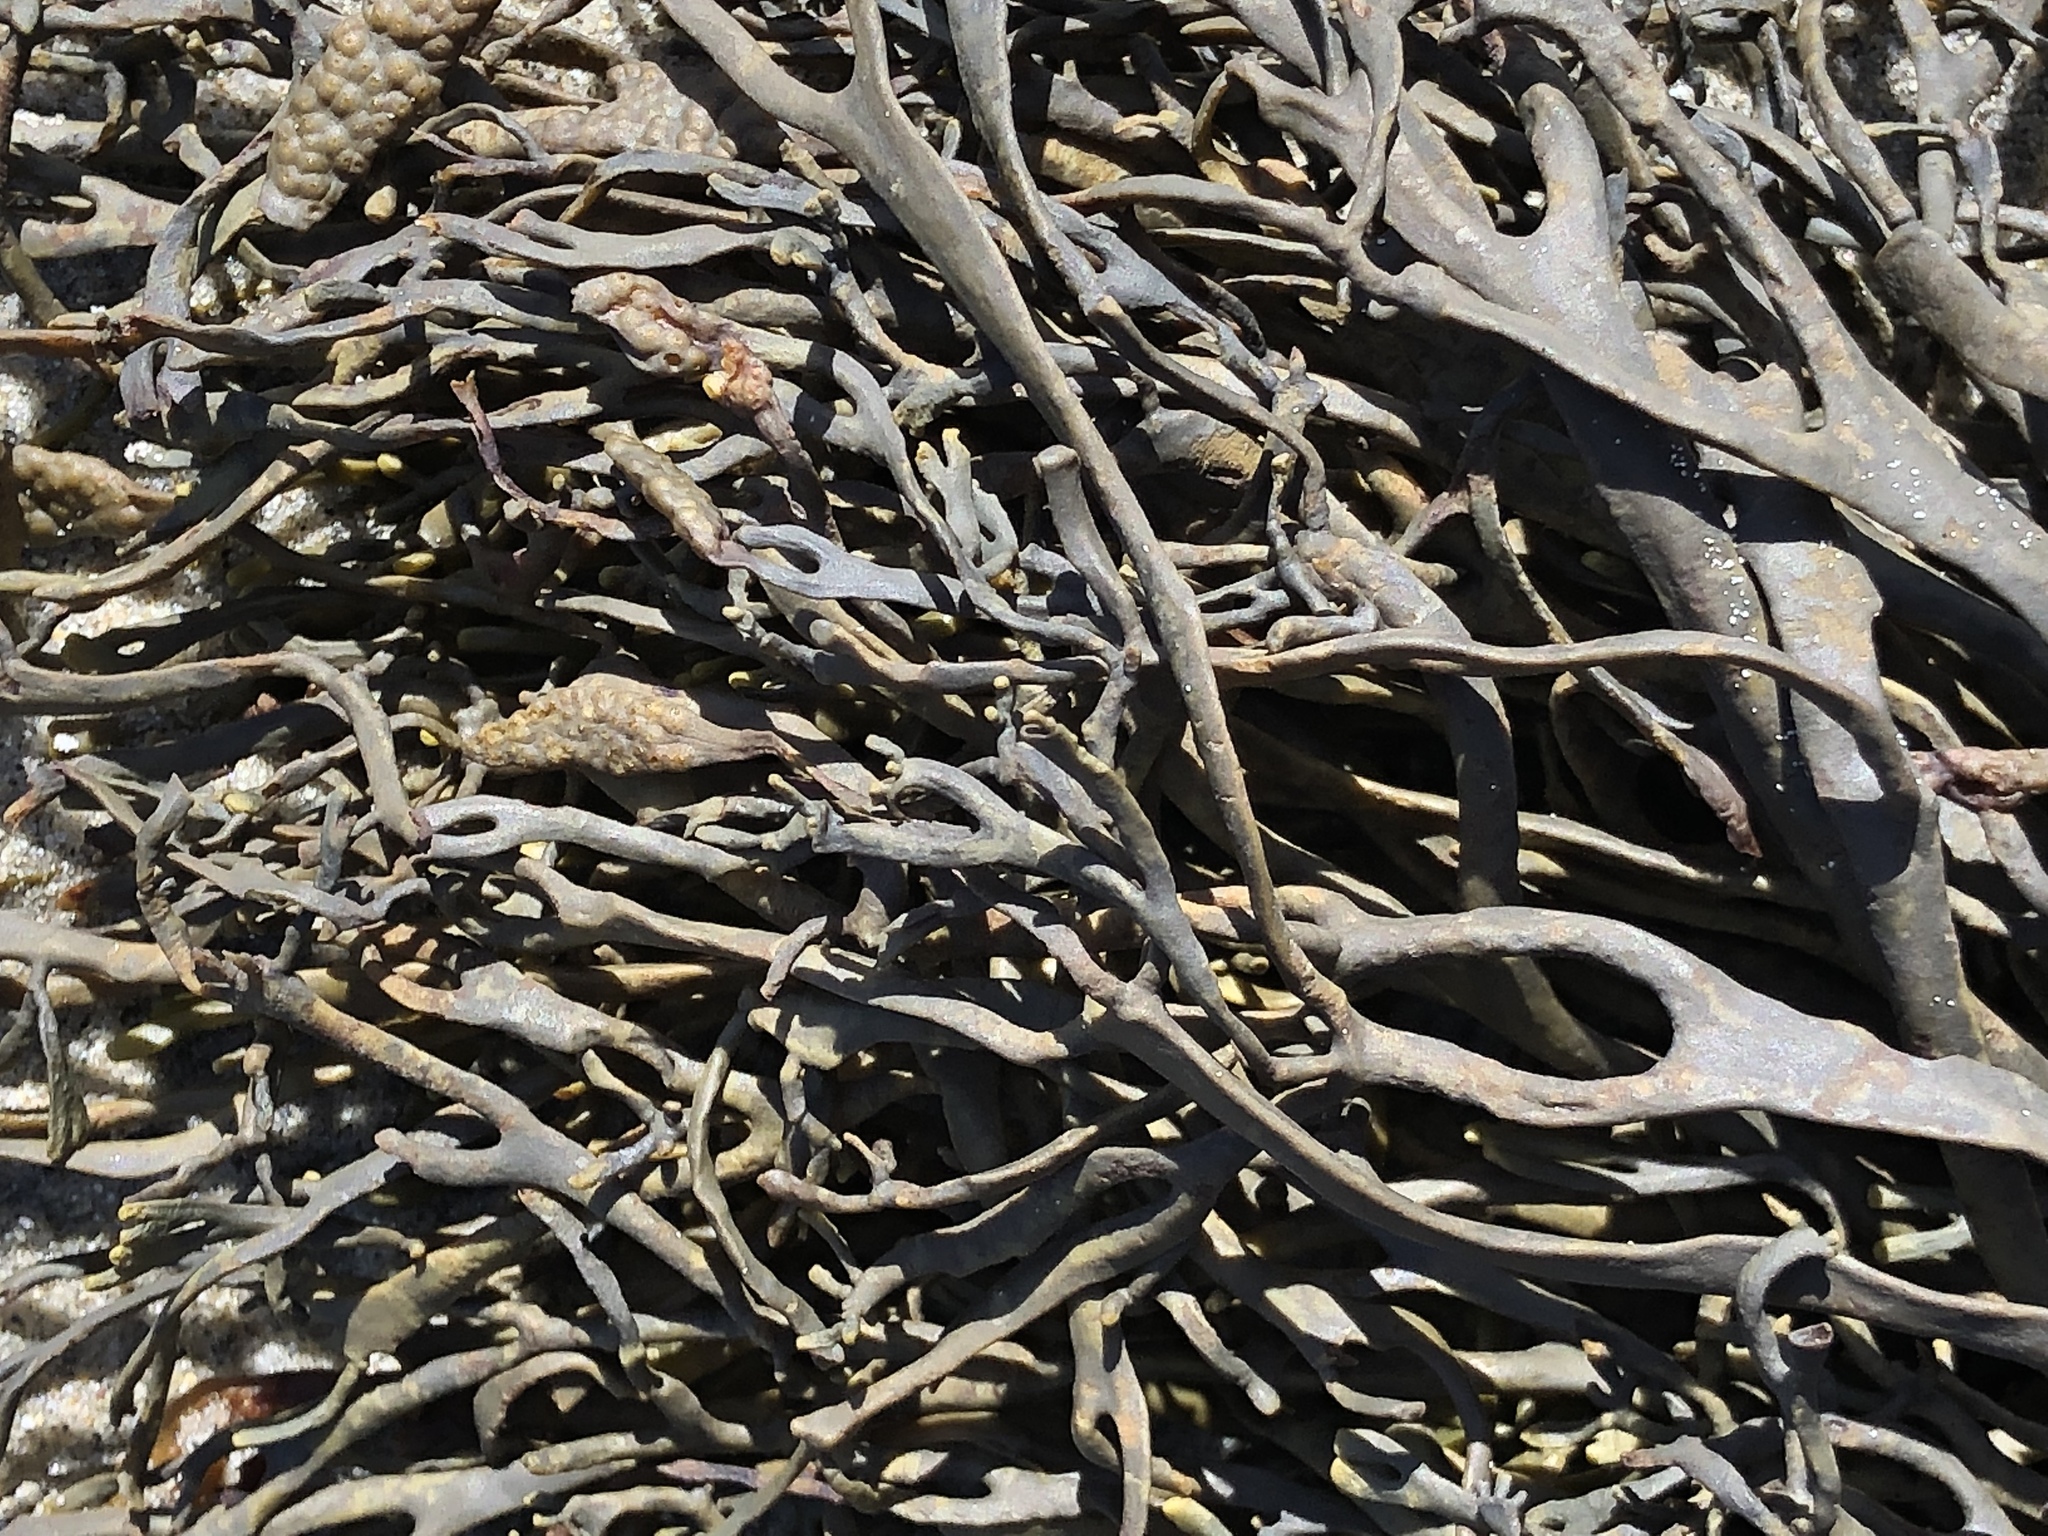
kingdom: Chromista
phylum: Ochrophyta
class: Phaeophyceae
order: Fucales
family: Fucaceae
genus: Silvetia
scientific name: Silvetia
